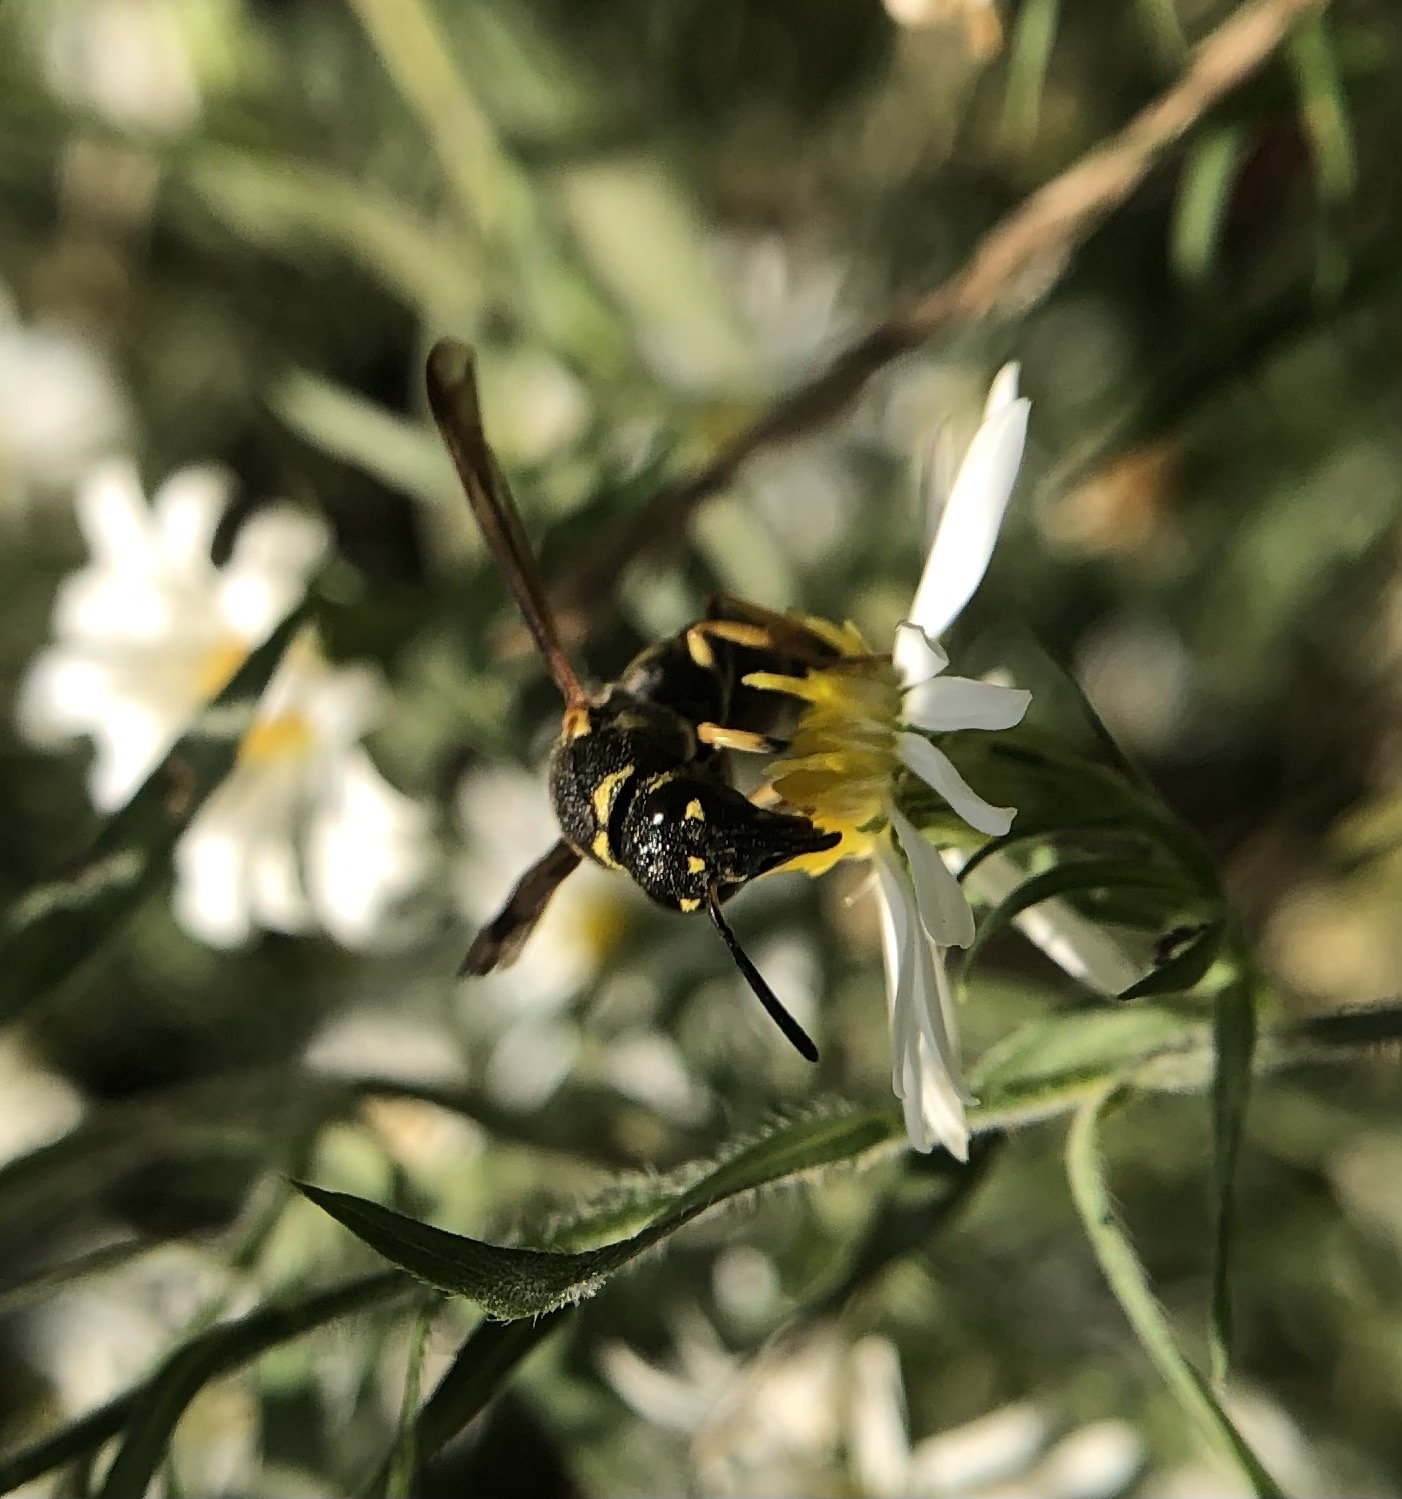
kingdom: Animalia
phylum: Arthropoda
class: Insecta
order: Hymenoptera
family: Eumenidae
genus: Parancistrocerus
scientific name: Parancistrocerus leionotus
